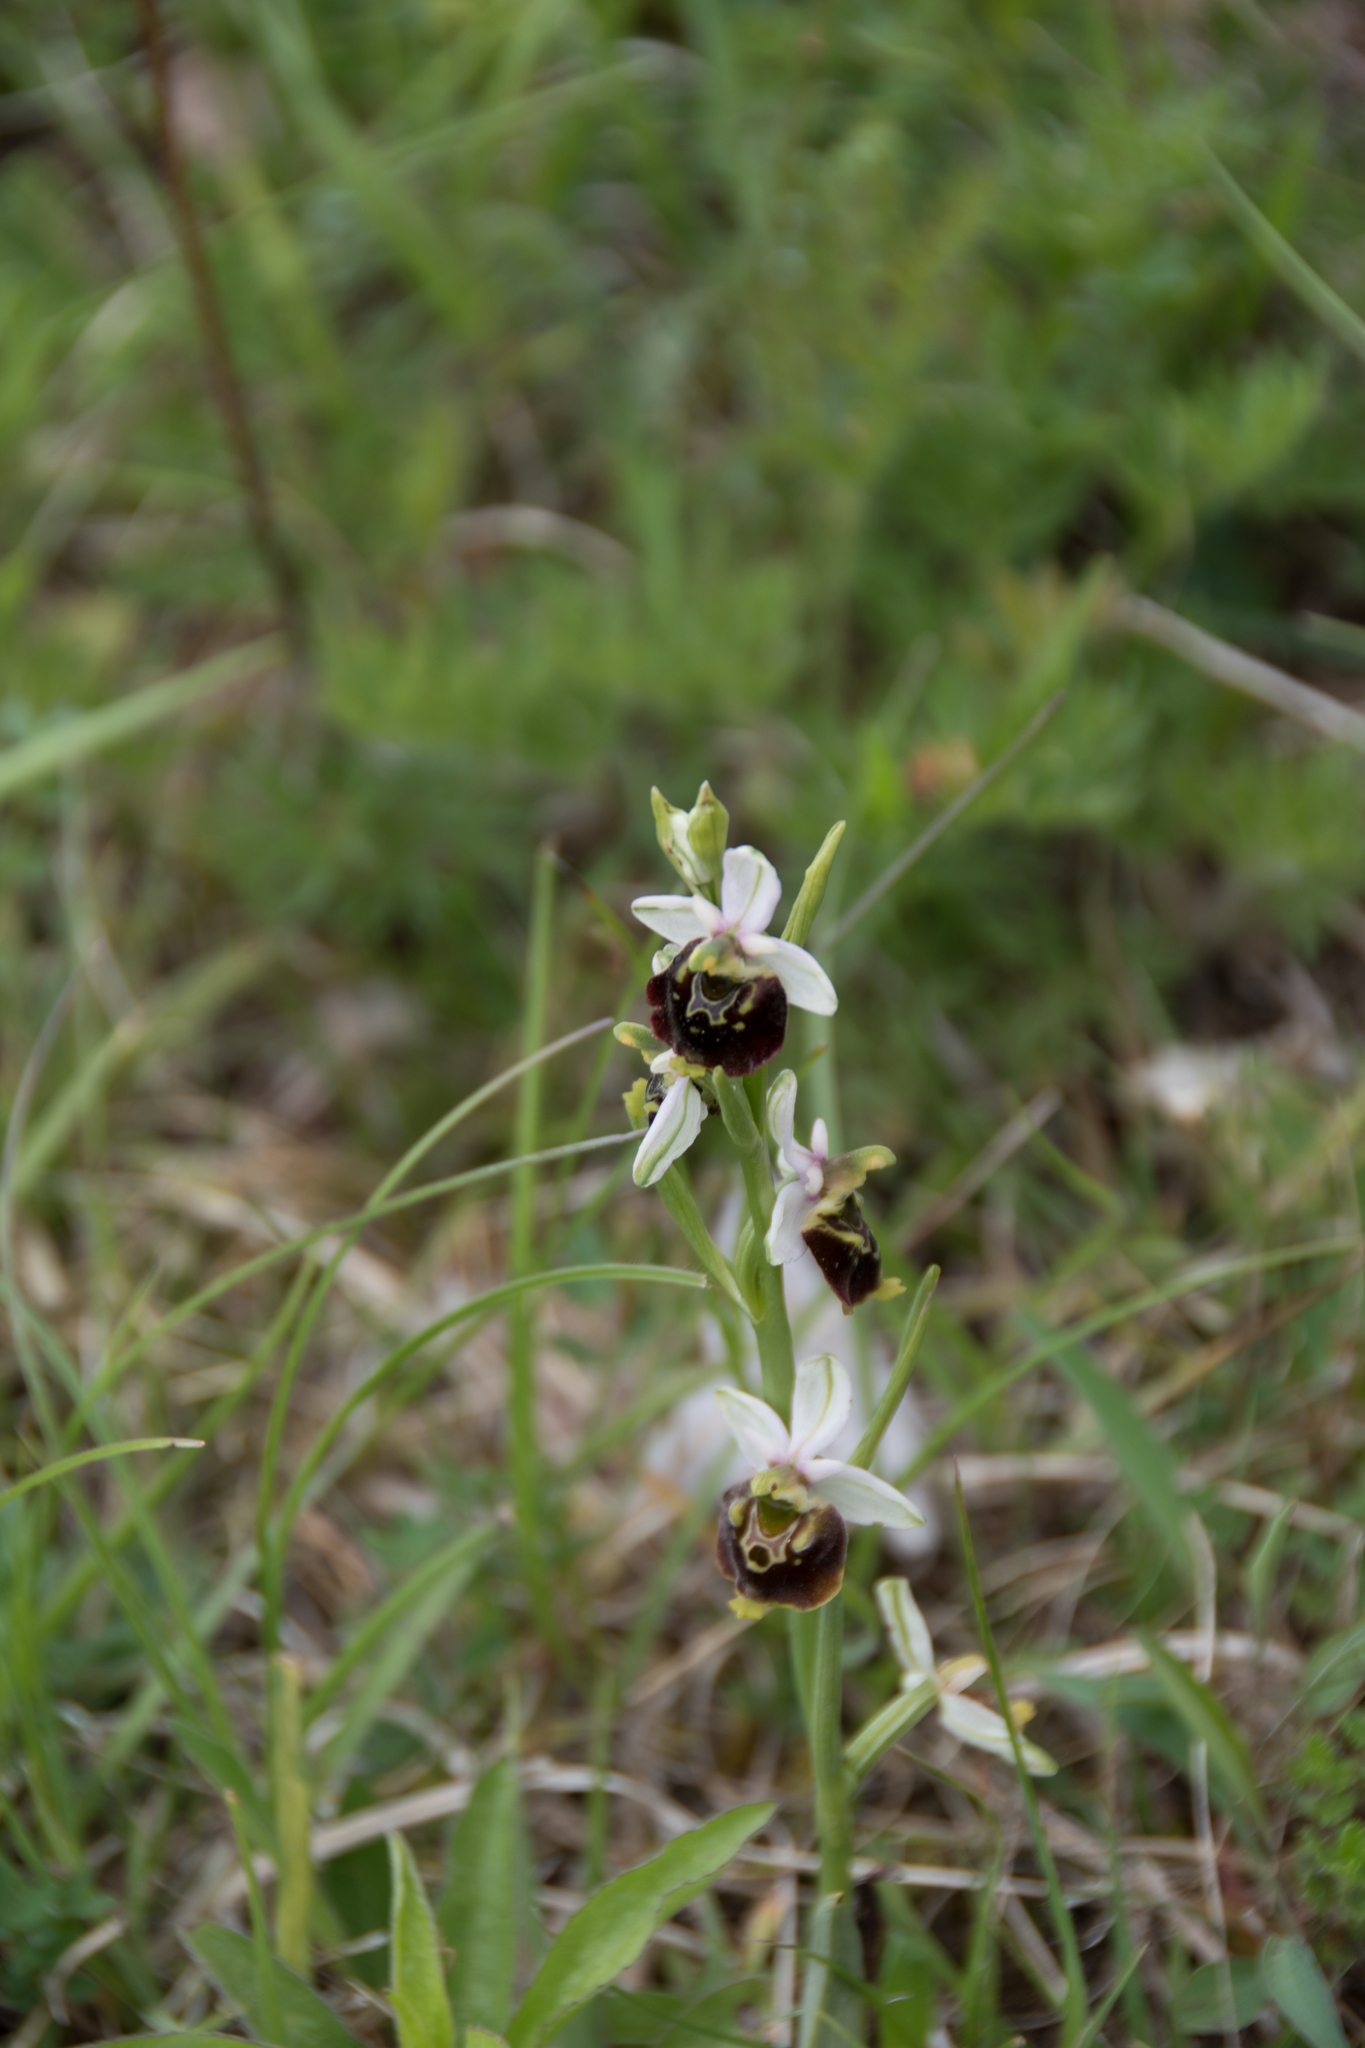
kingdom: Plantae
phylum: Tracheophyta
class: Liliopsida
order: Asparagales
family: Orchidaceae
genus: Ophrys
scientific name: Ophrys holosericea
